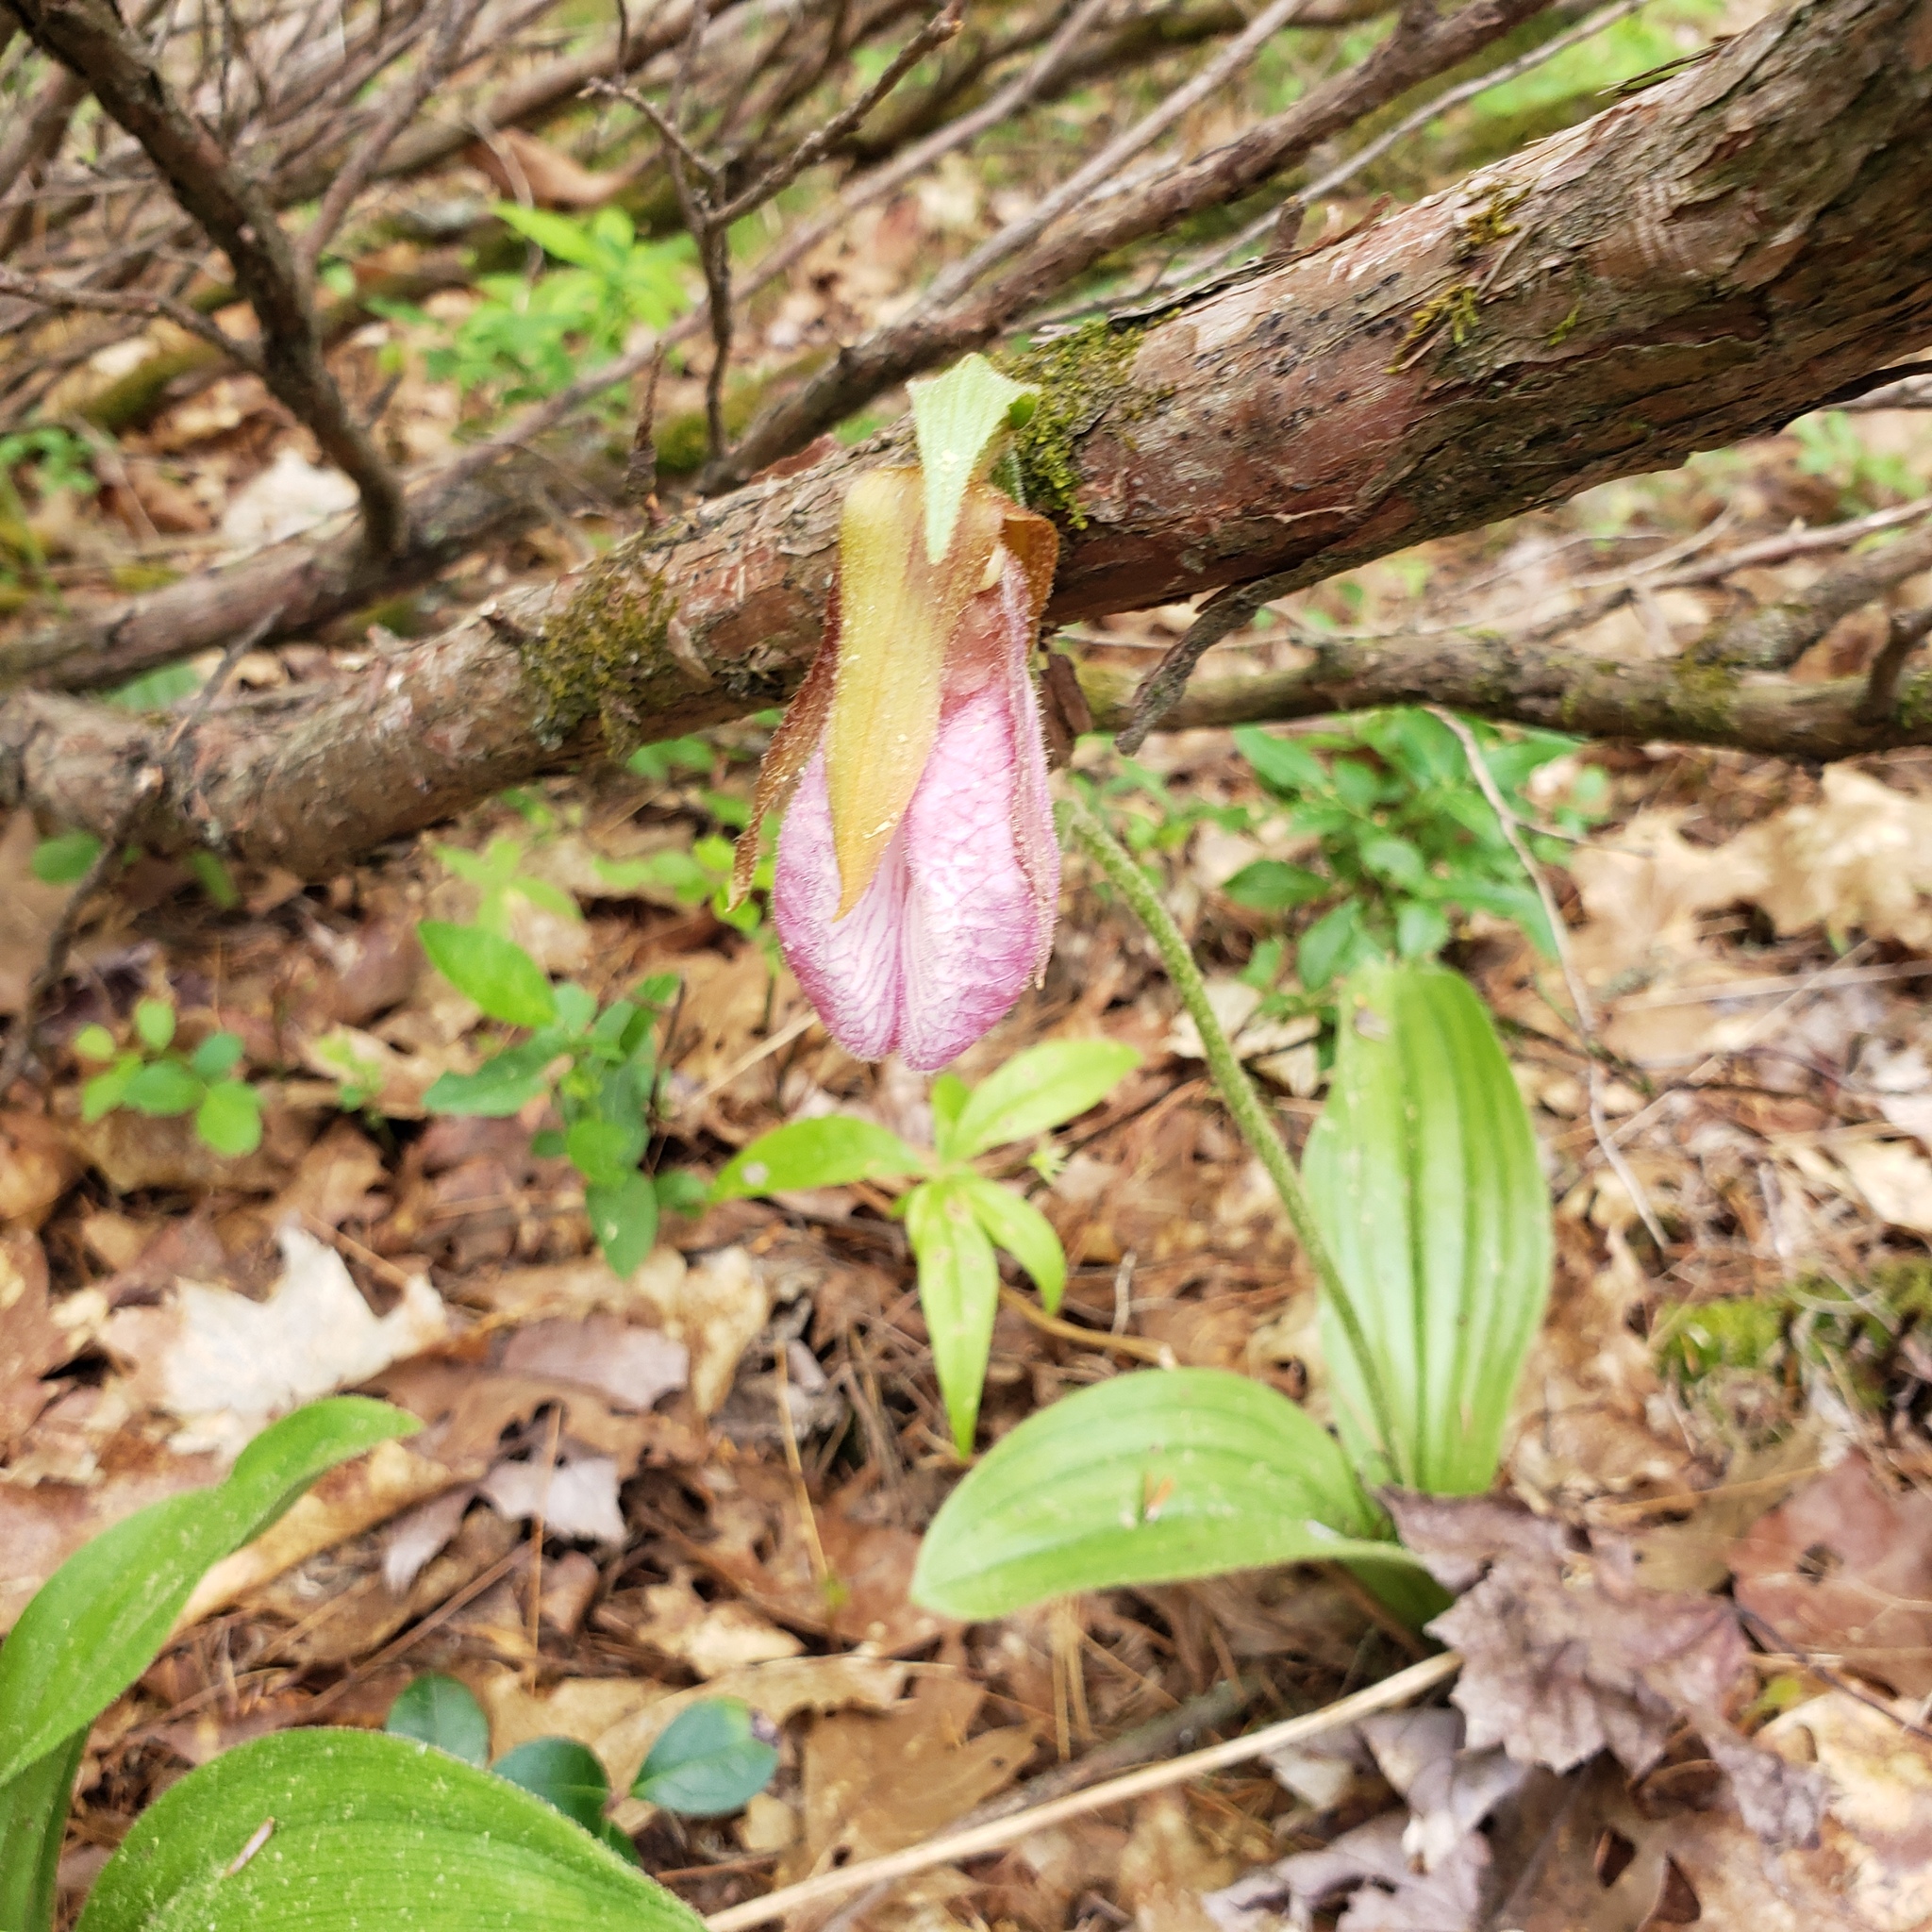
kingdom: Plantae
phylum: Tracheophyta
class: Liliopsida
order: Asparagales
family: Orchidaceae
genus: Cypripedium
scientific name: Cypripedium acaule
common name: Pink lady's-slipper
